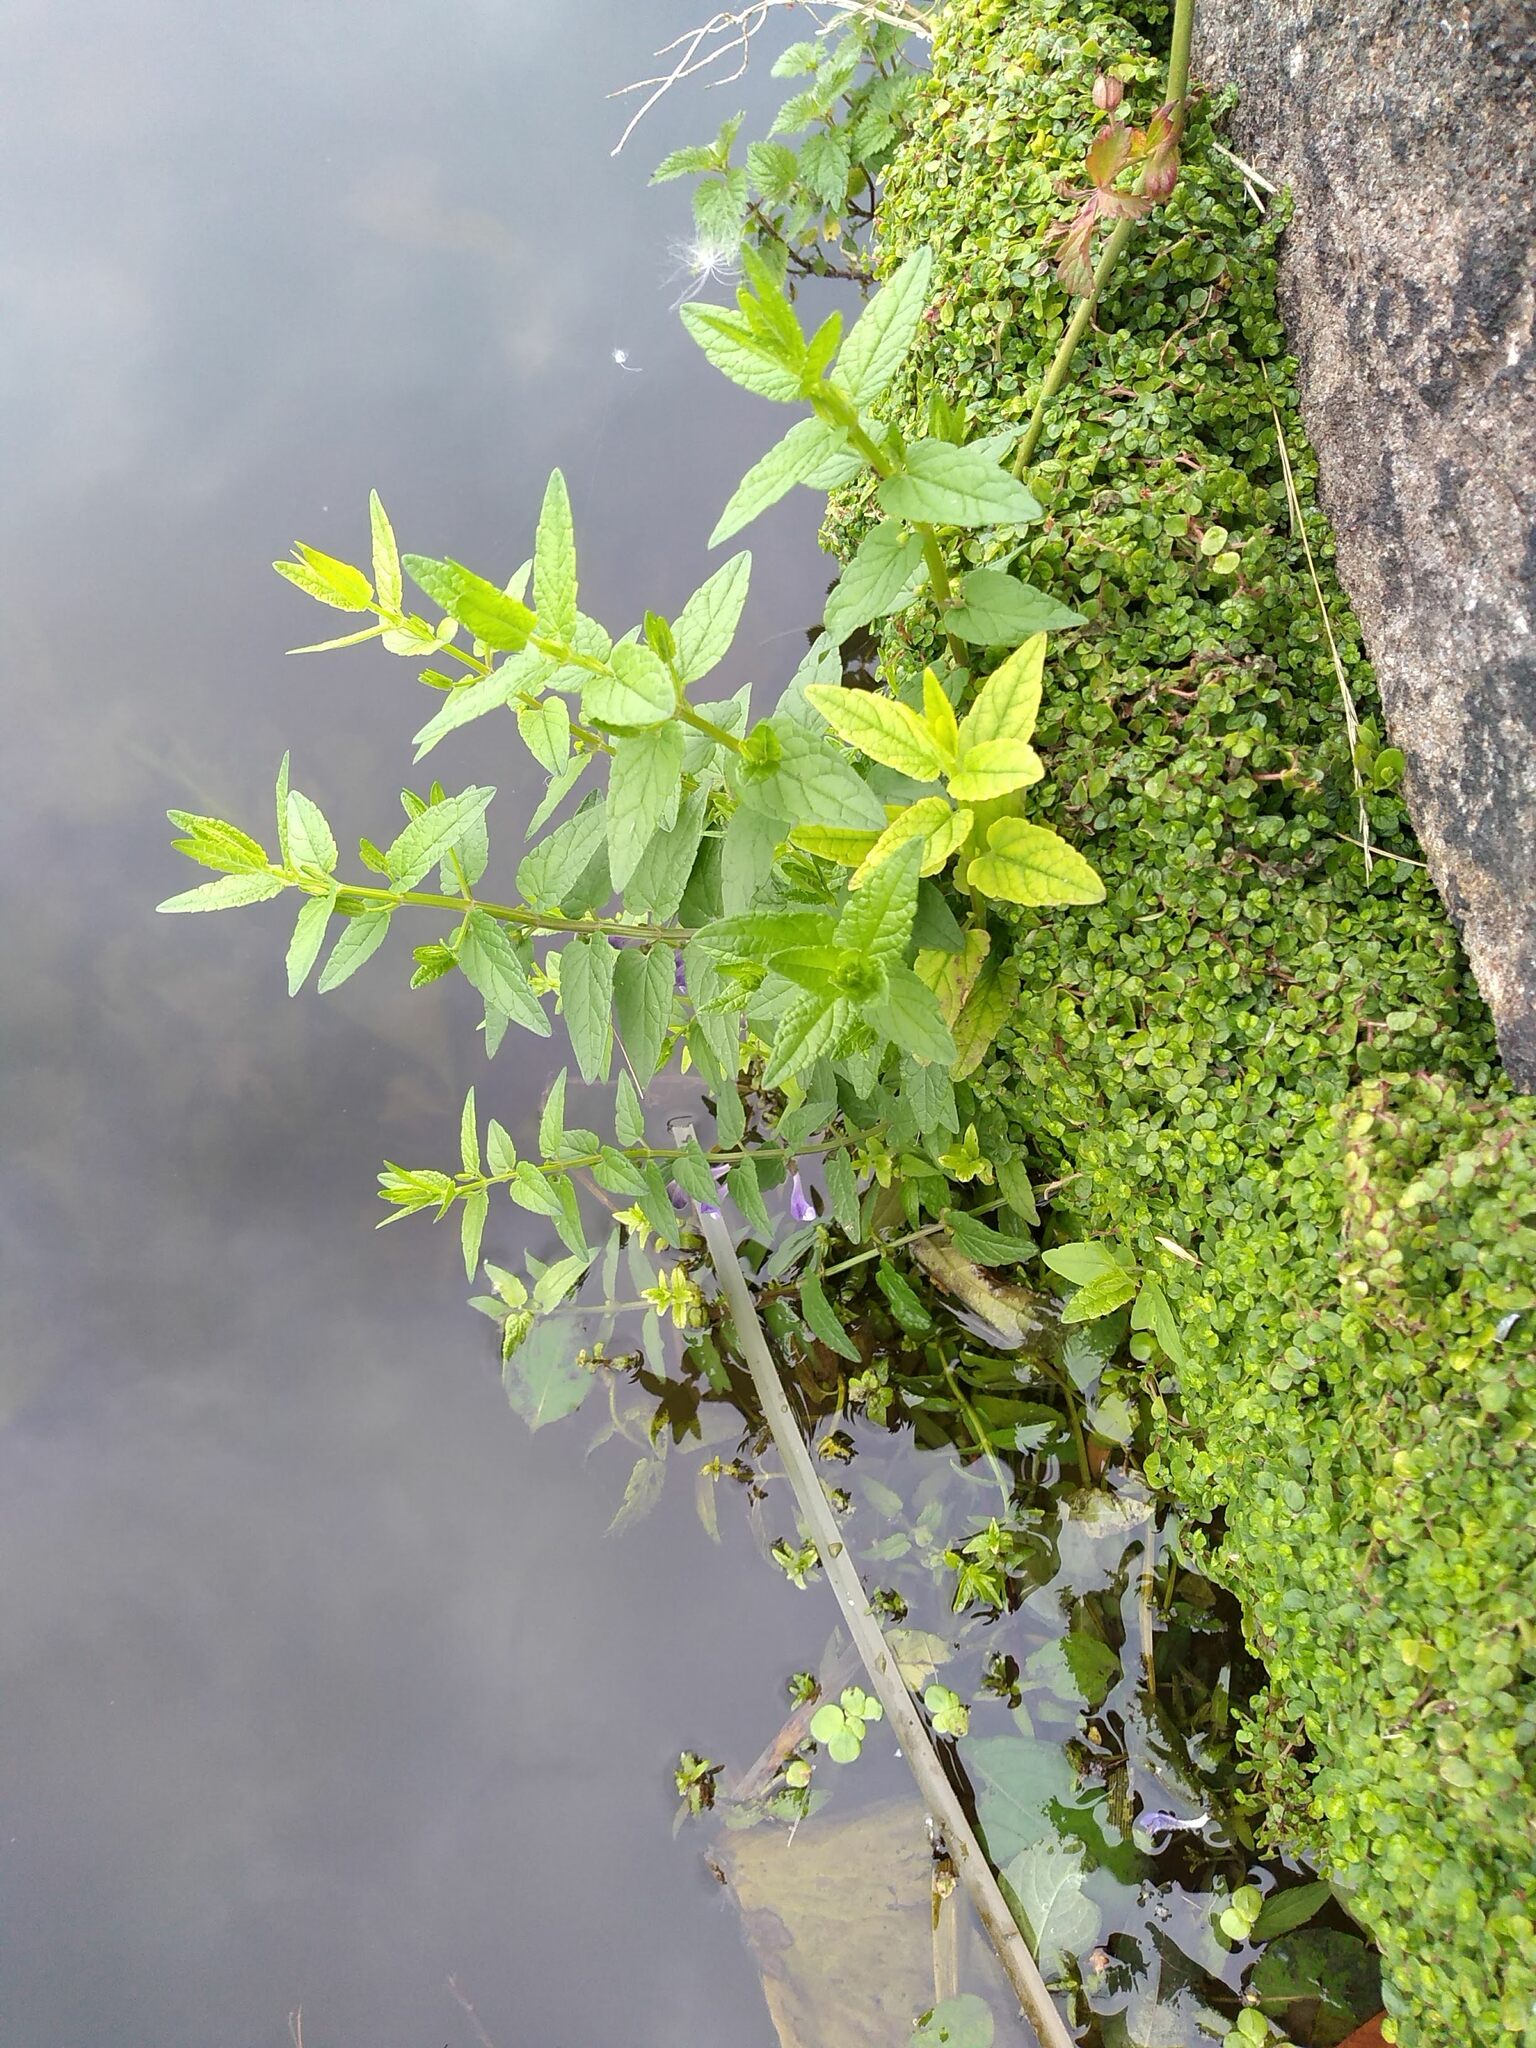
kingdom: Plantae
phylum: Tracheophyta
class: Magnoliopsida
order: Lamiales
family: Lamiaceae
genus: Scutellaria
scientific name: Scutellaria galericulata
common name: Skullcap
